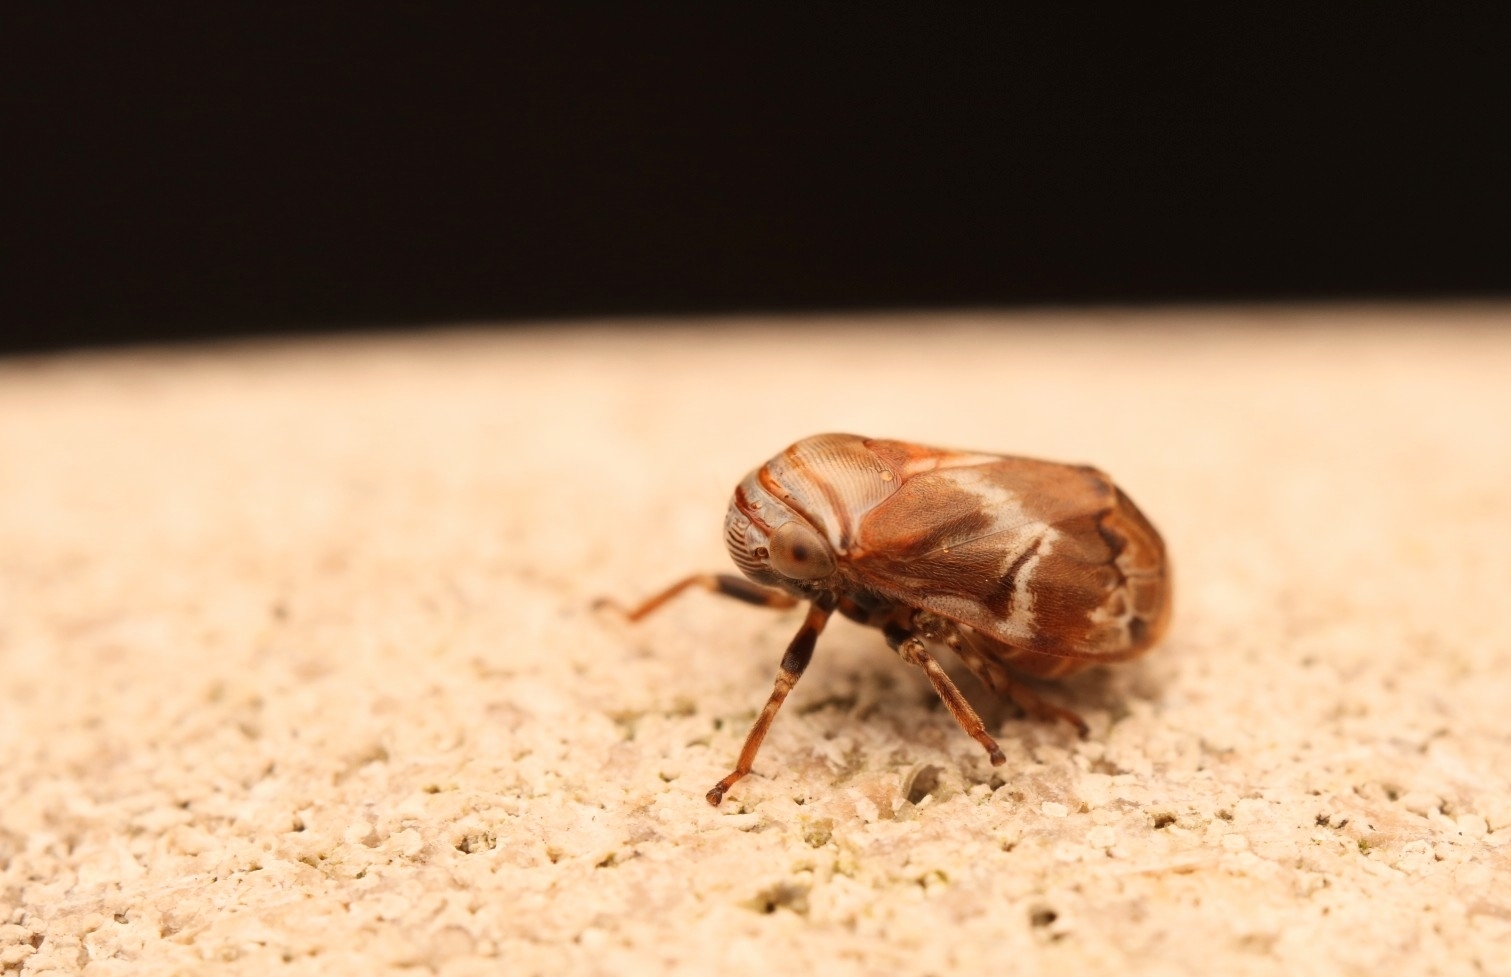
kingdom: Animalia
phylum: Arthropoda
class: Insecta
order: Hemiptera
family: Clastopteridae
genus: Clastoptera
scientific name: Clastoptera obtusa
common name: Alder spittlebug
